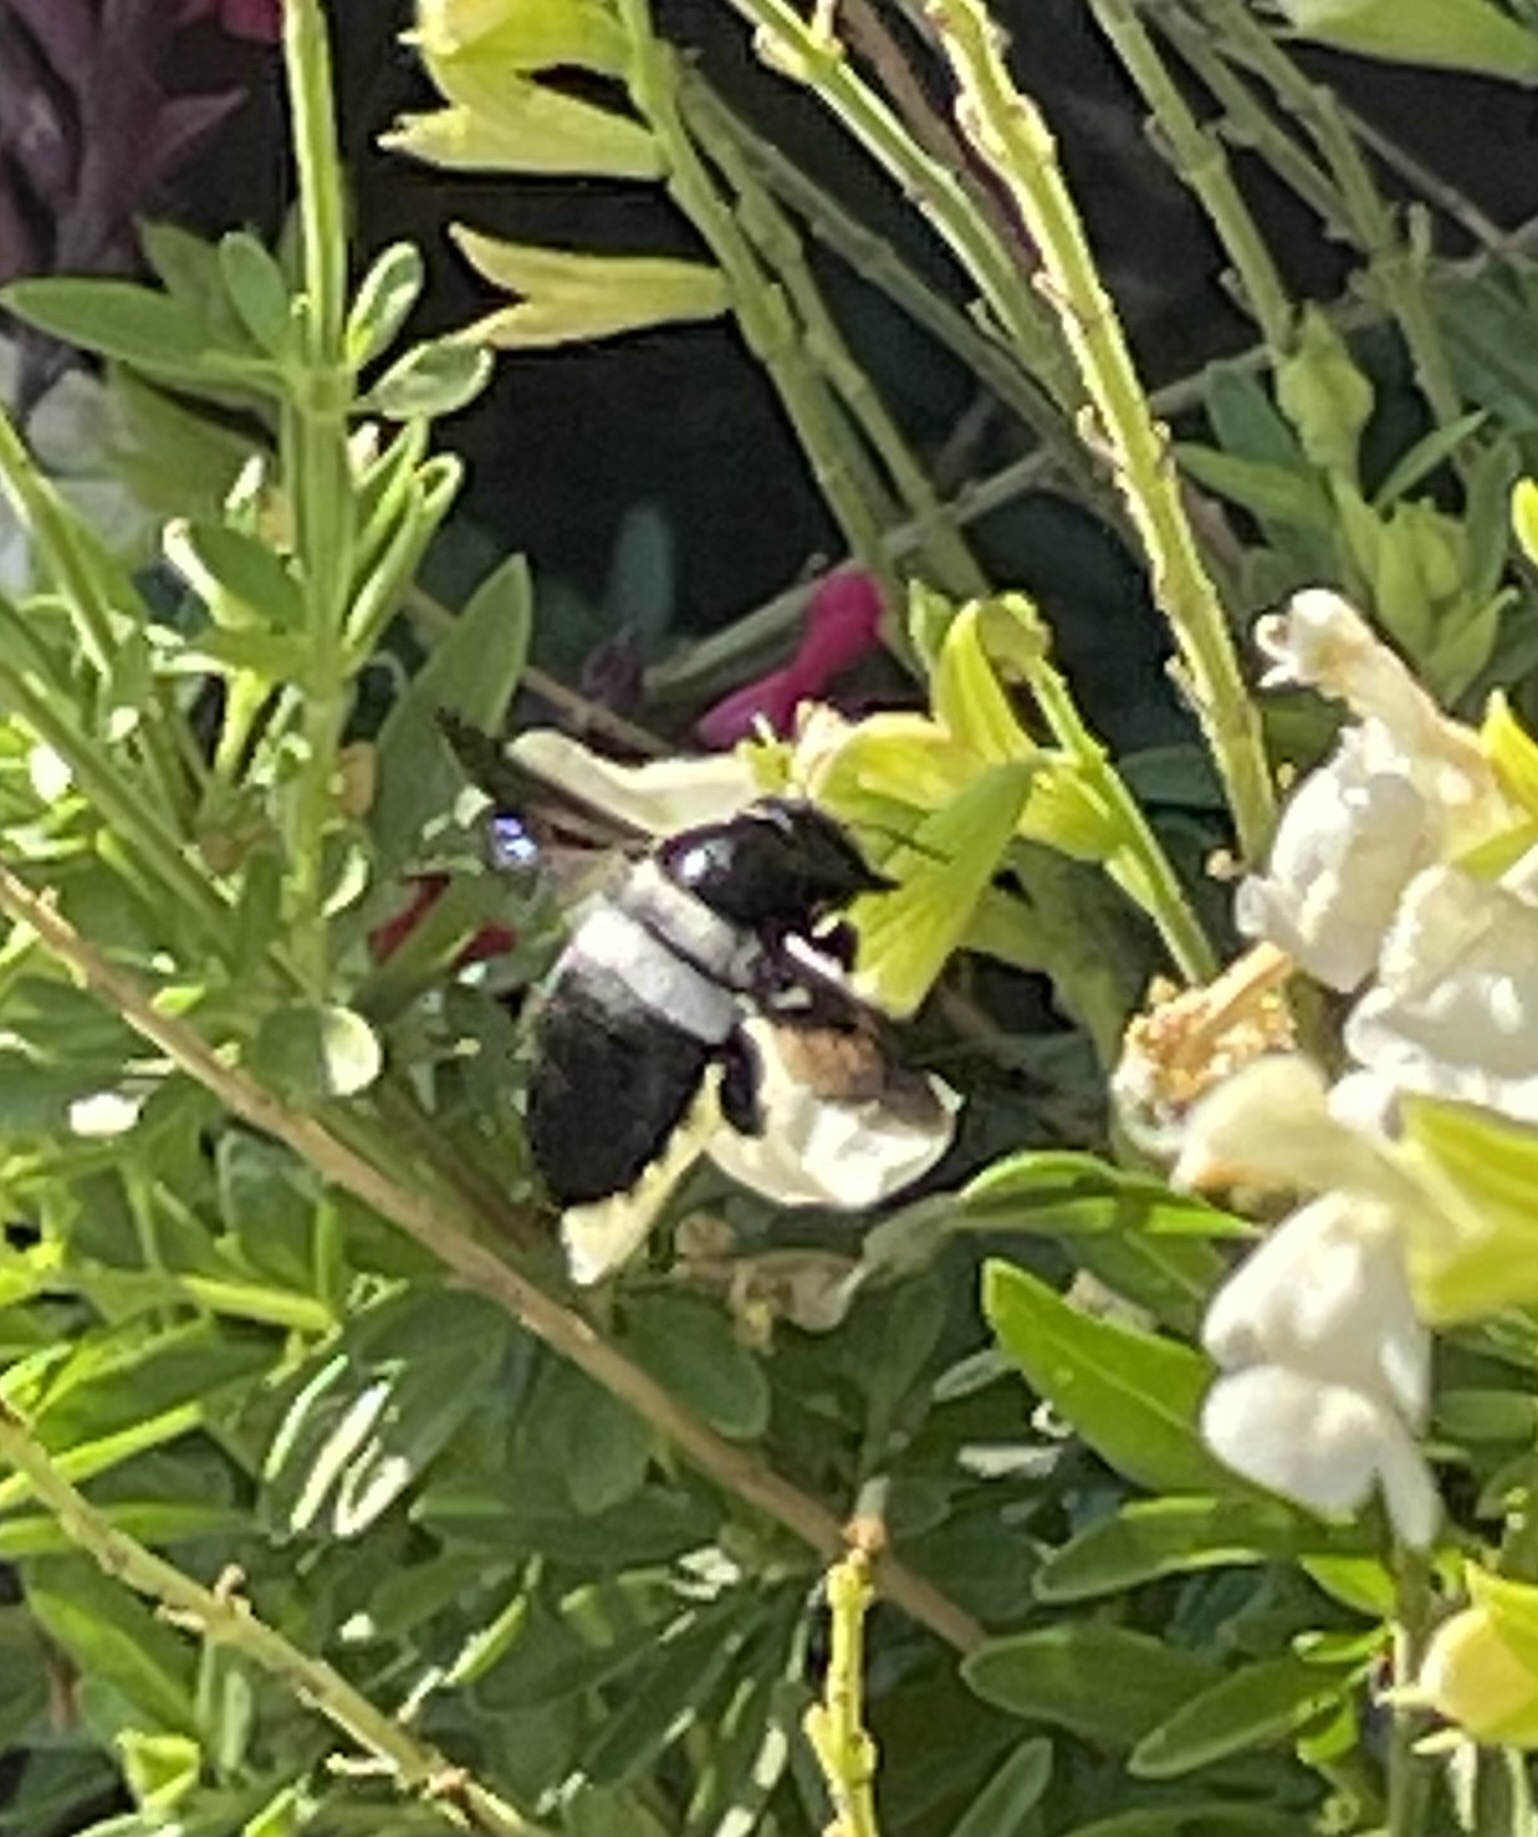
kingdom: Animalia
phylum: Arthropoda
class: Insecta
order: Hymenoptera
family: Apidae
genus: Xylocopa
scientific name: Xylocopa caffra
